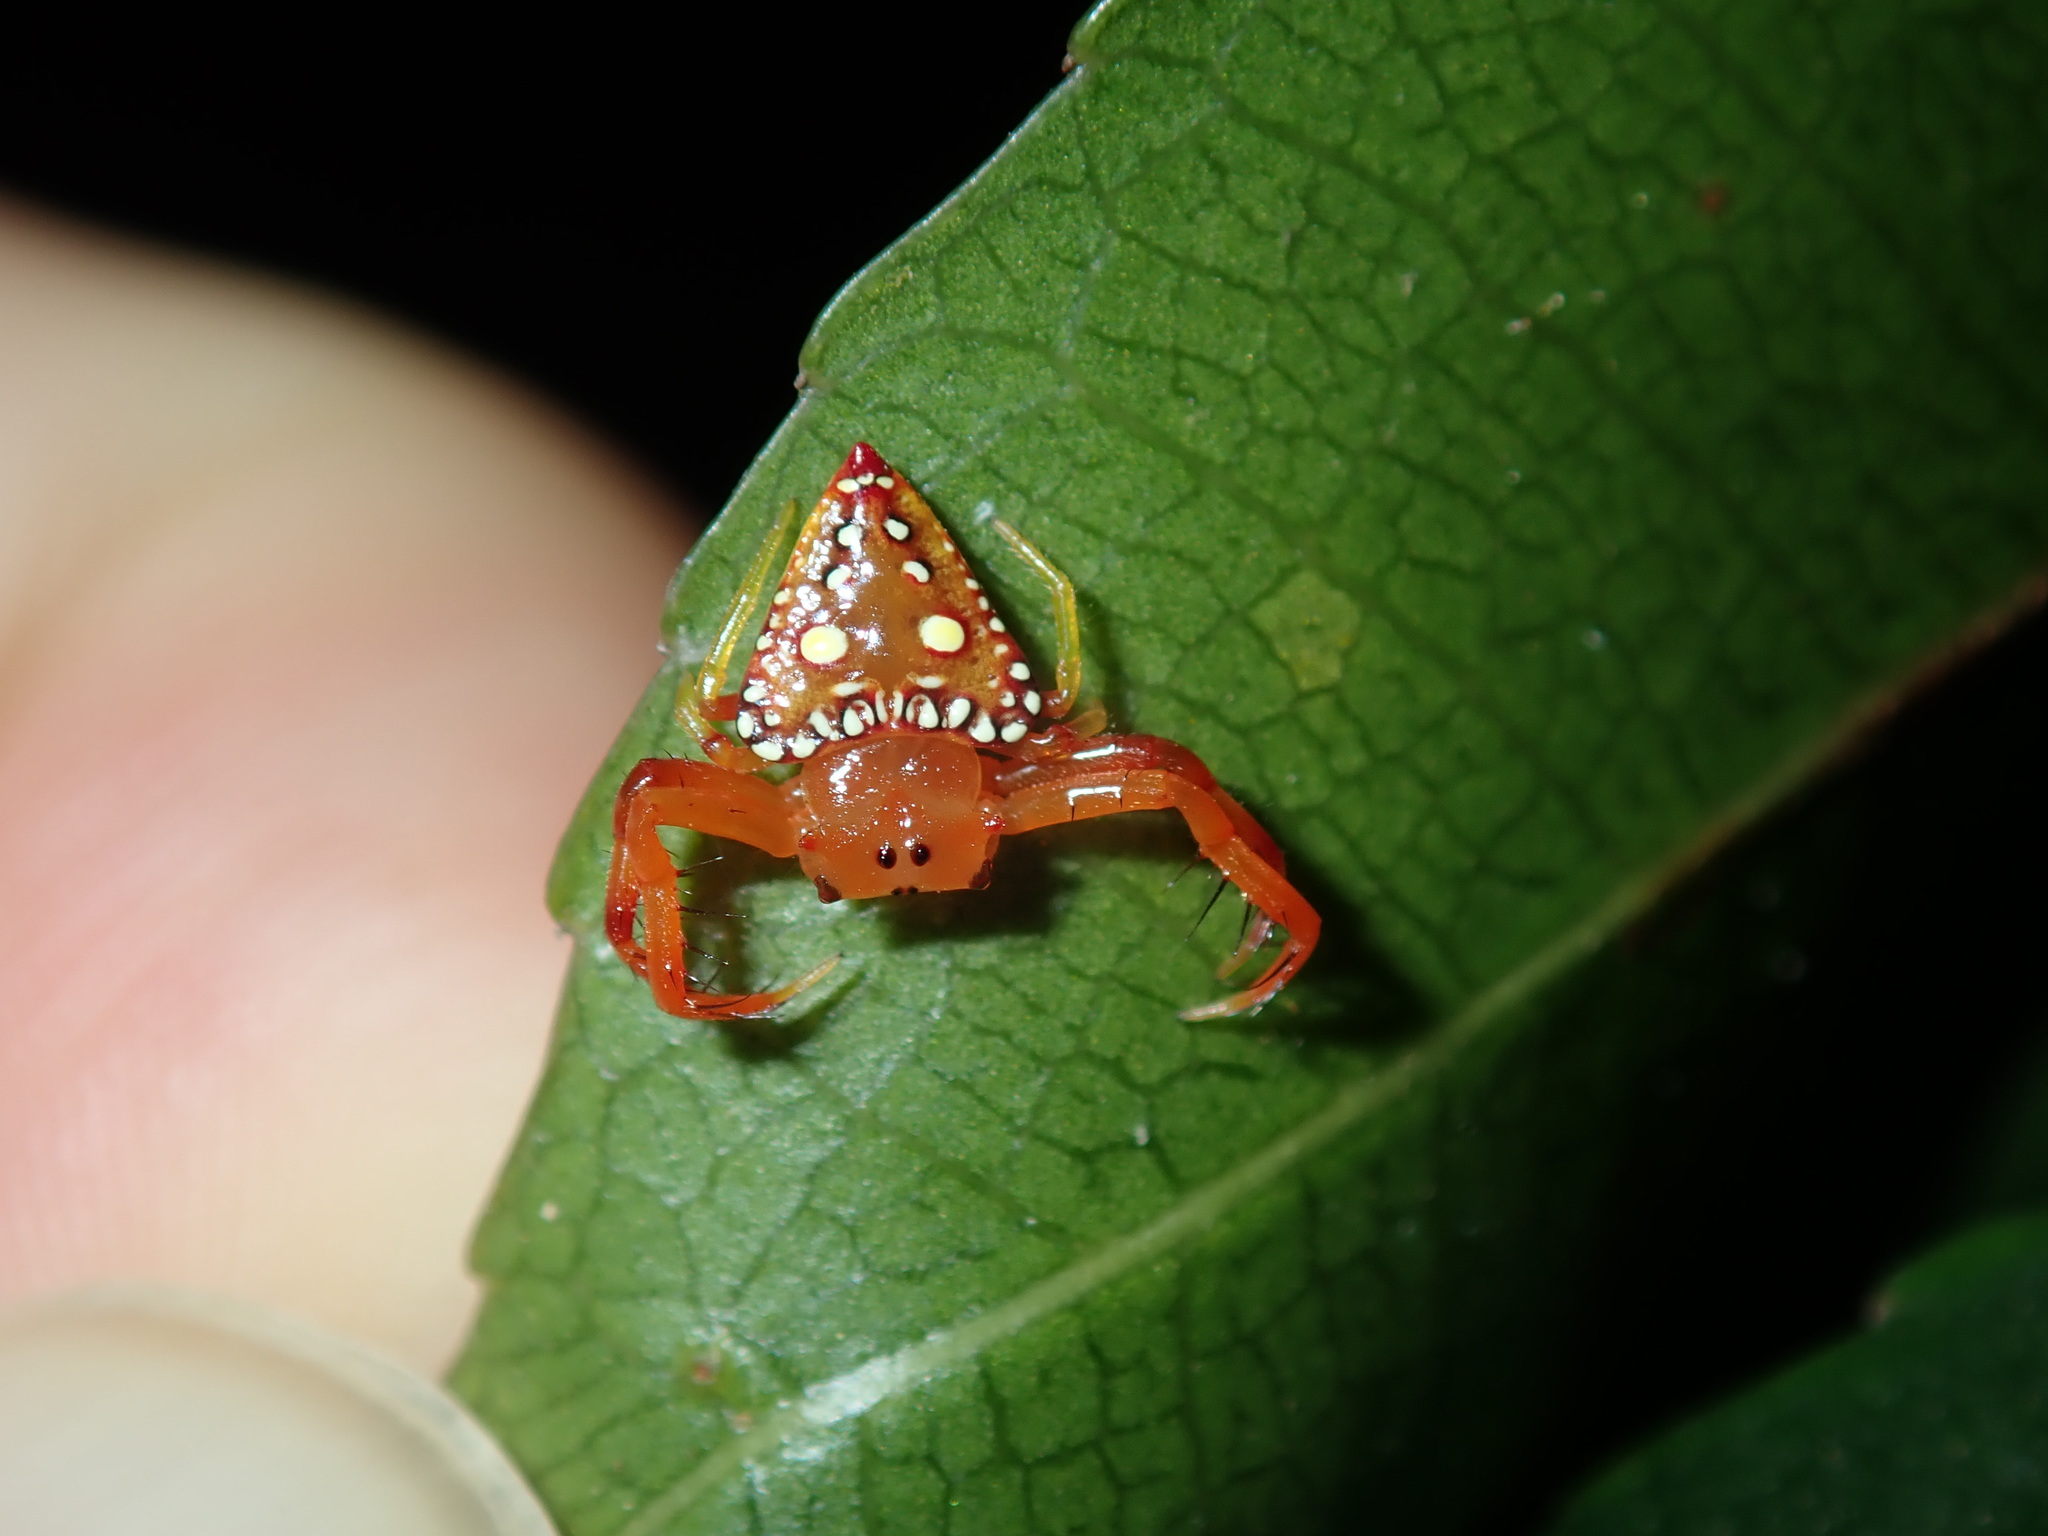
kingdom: Animalia
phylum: Arthropoda
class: Arachnida
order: Araneae
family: Arkyidae
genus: Arkys
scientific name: Arkys lancearius
